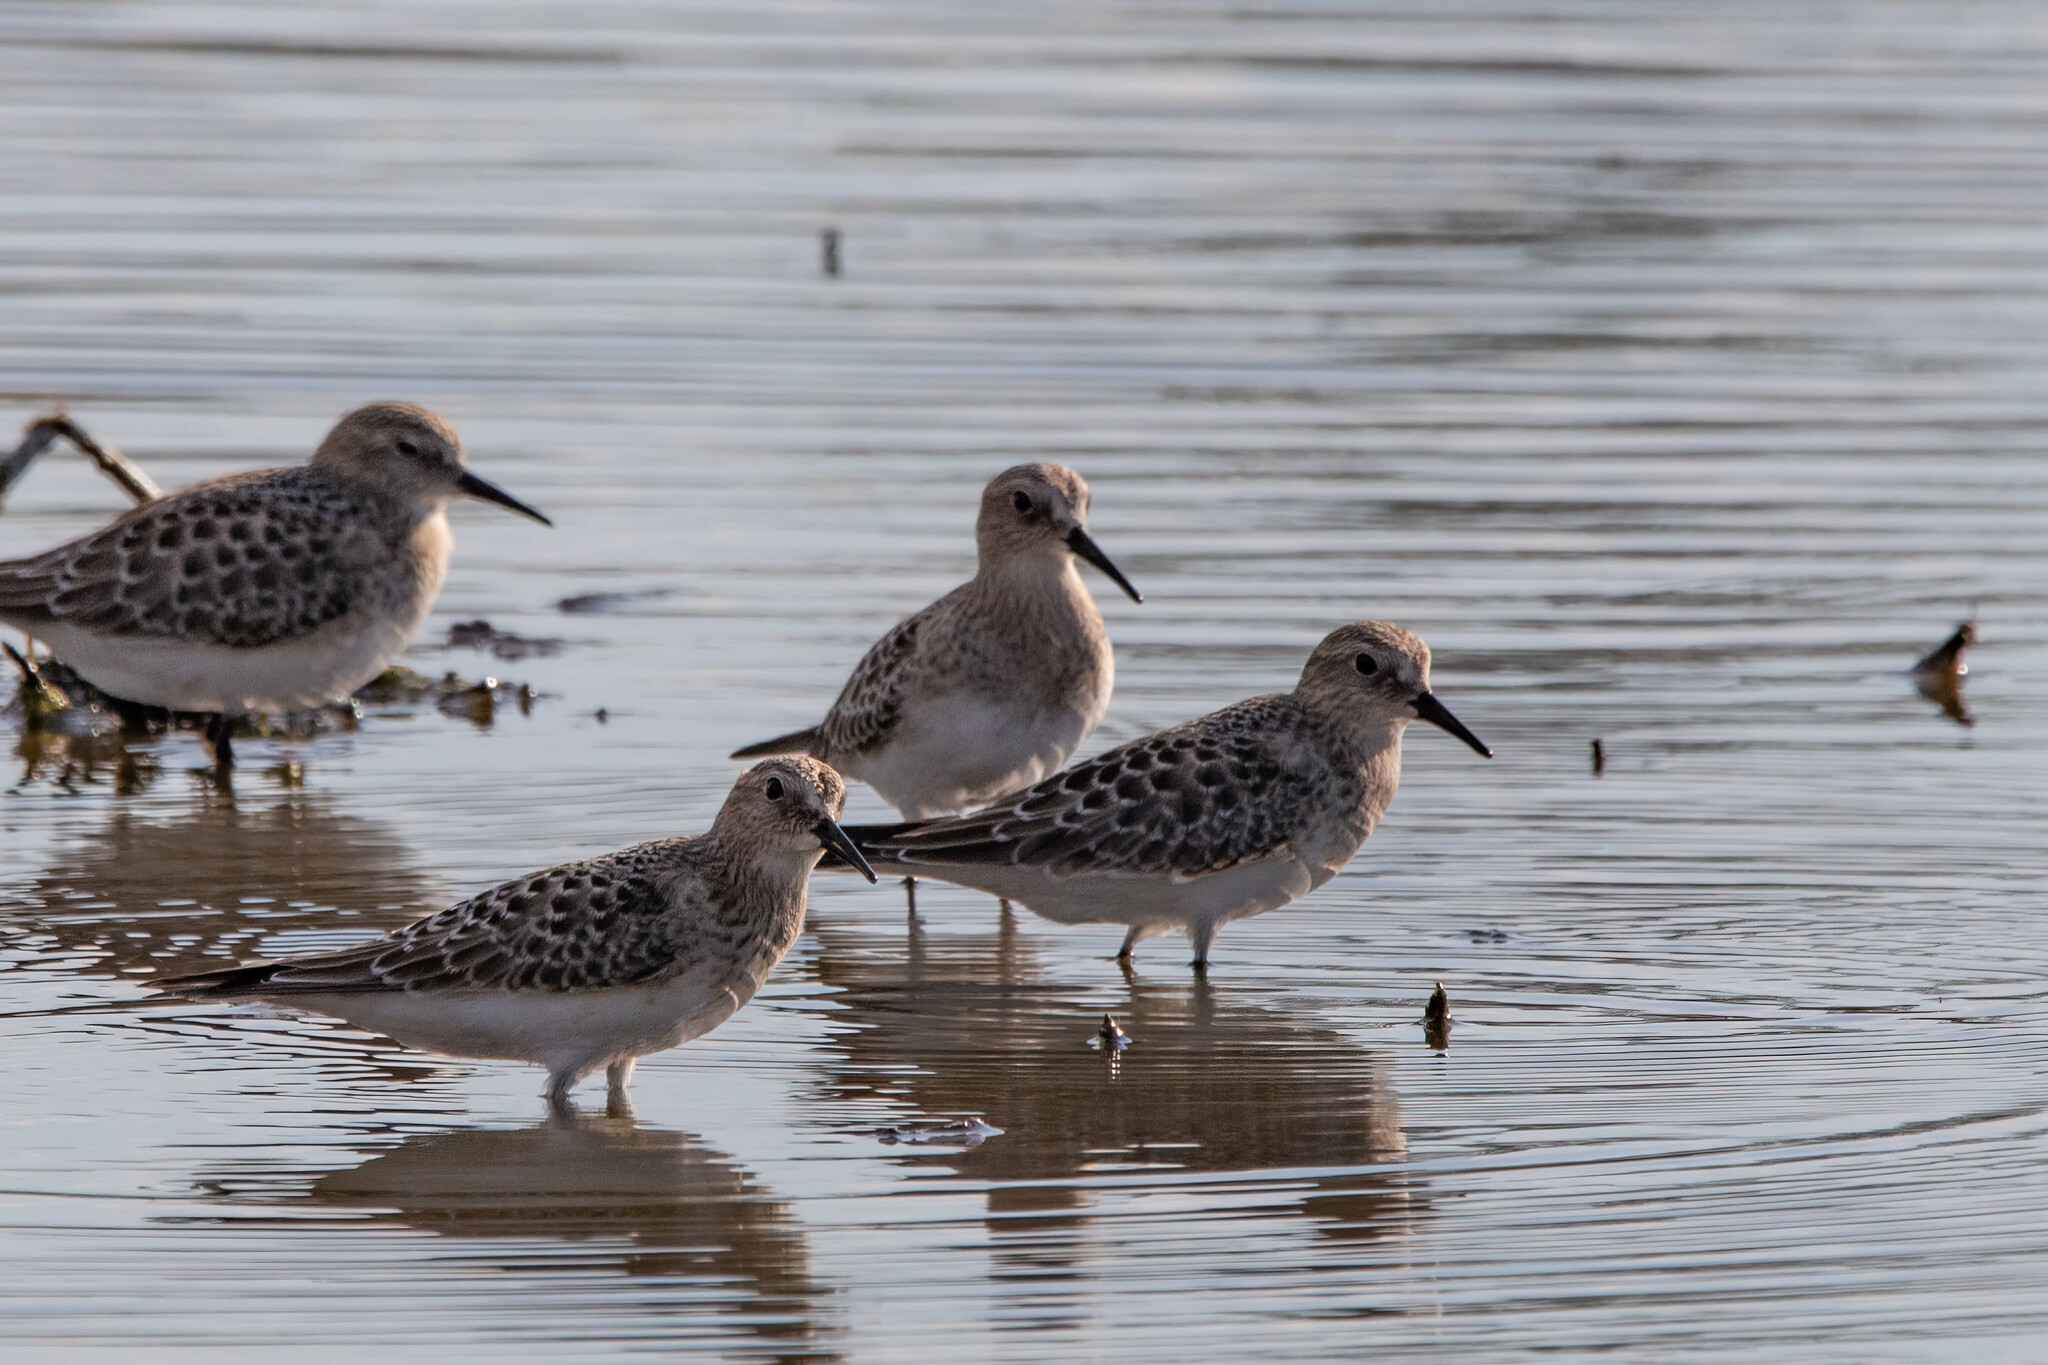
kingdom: Animalia
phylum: Chordata
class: Aves
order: Charadriiformes
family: Scolopacidae
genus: Calidris
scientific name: Calidris bairdii
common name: Baird's sandpiper
